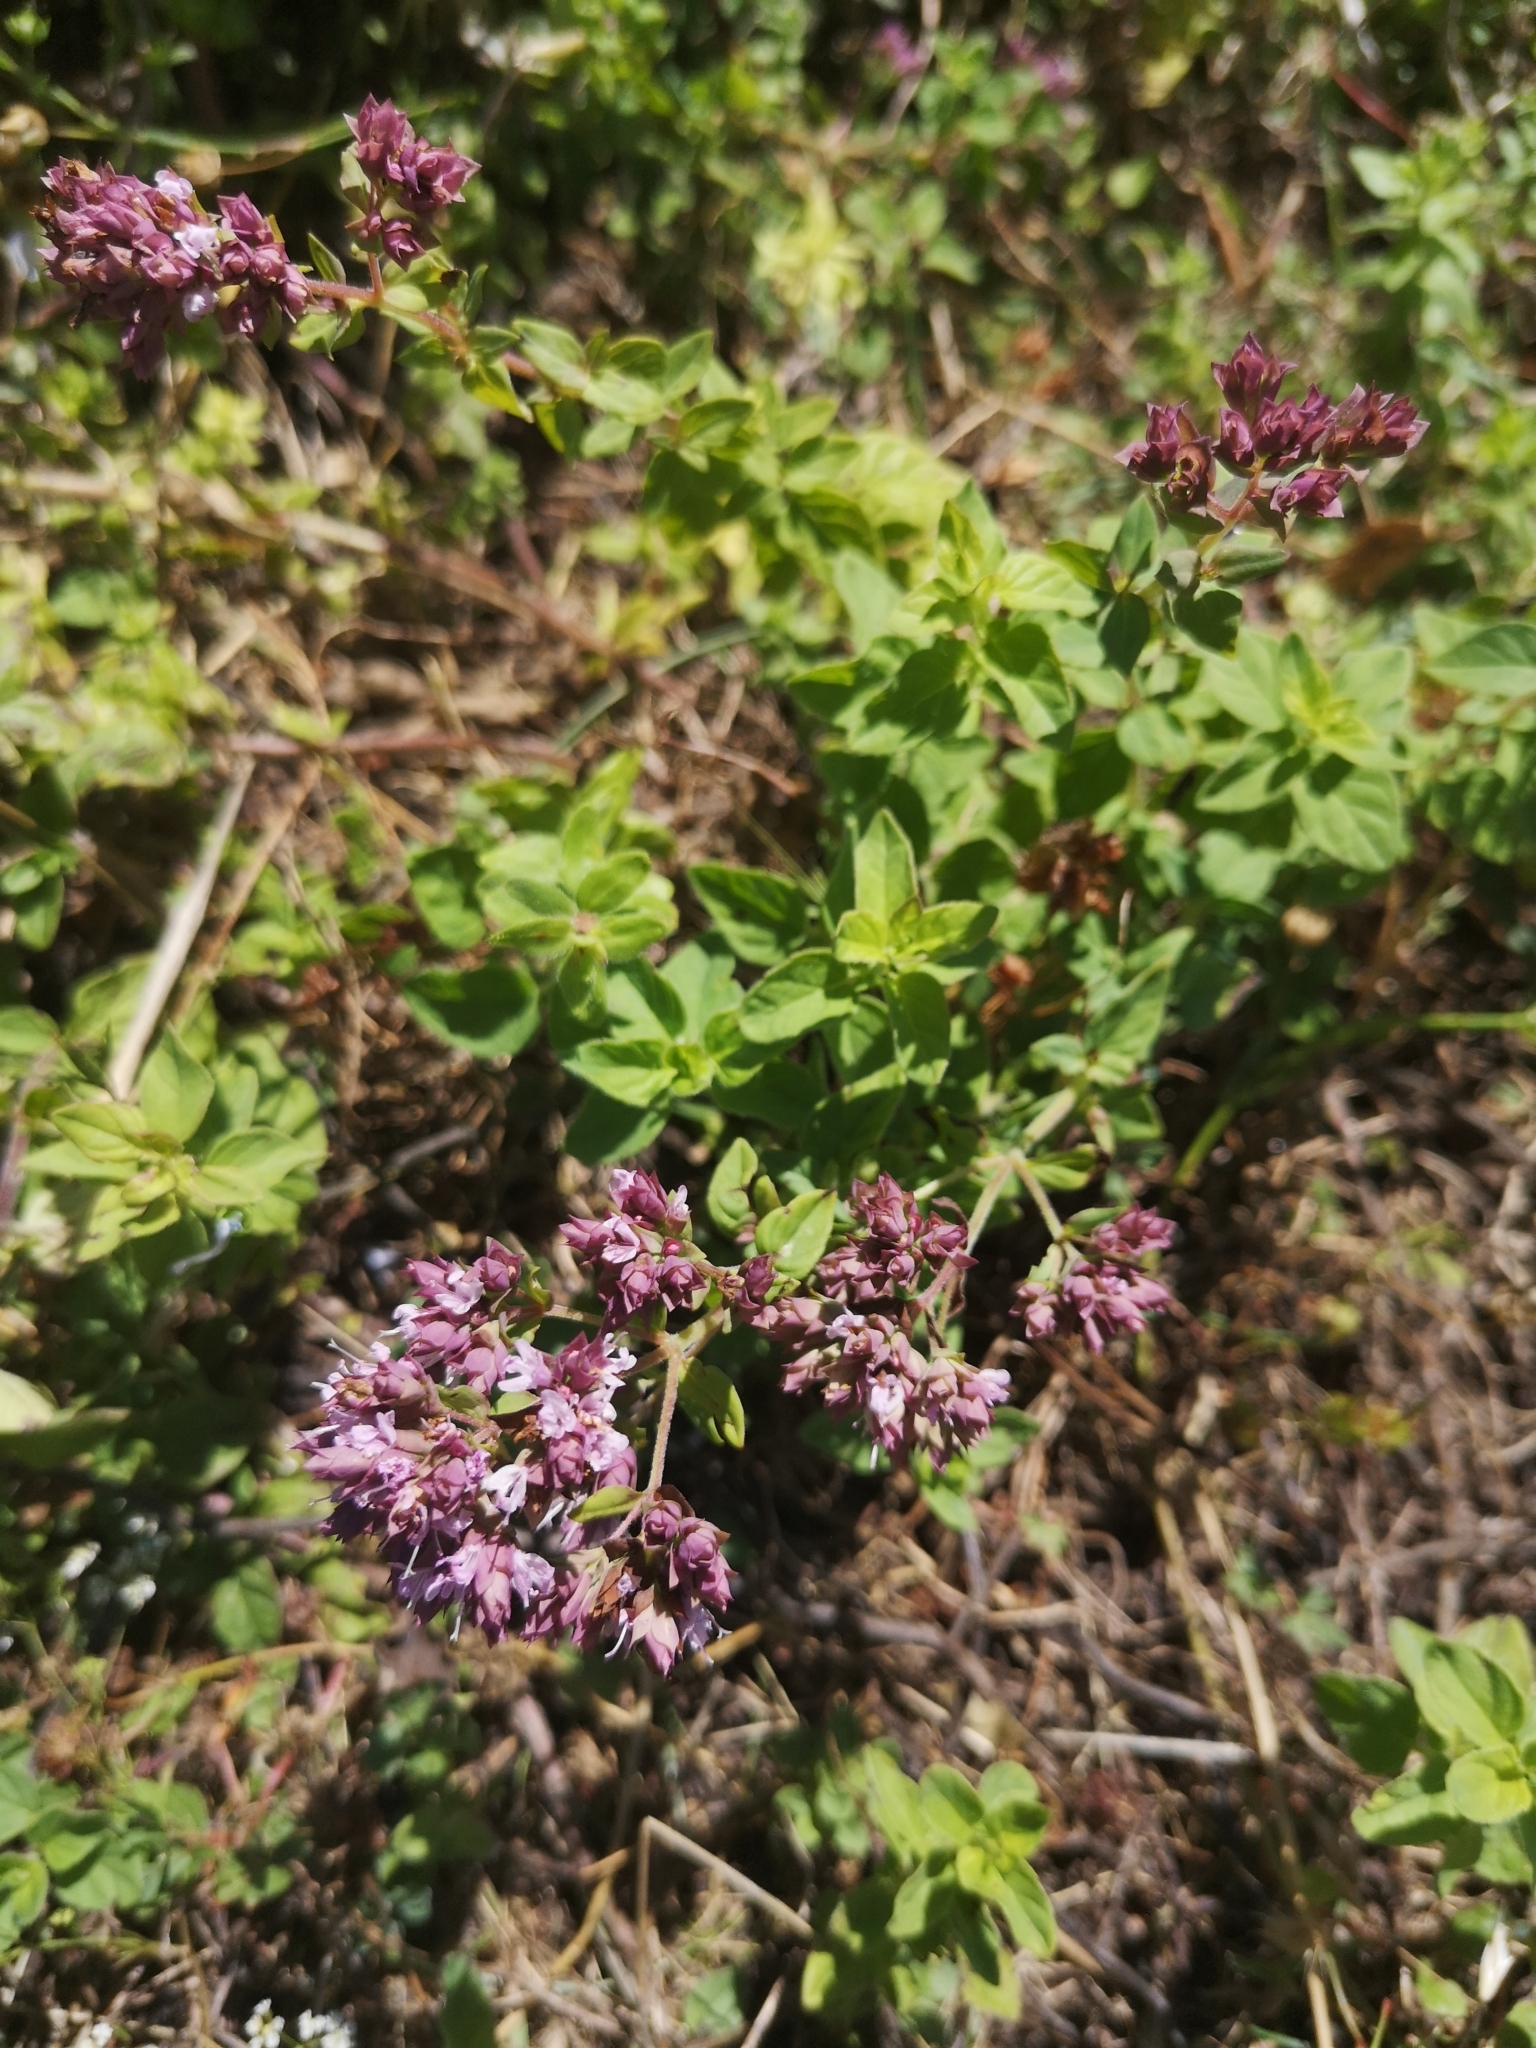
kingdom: Plantae
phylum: Tracheophyta
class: Magnoliopsida
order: Lamiales
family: Lamiaceae
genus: Origanum
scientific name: Origanum vulgare
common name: Wild marjoram
